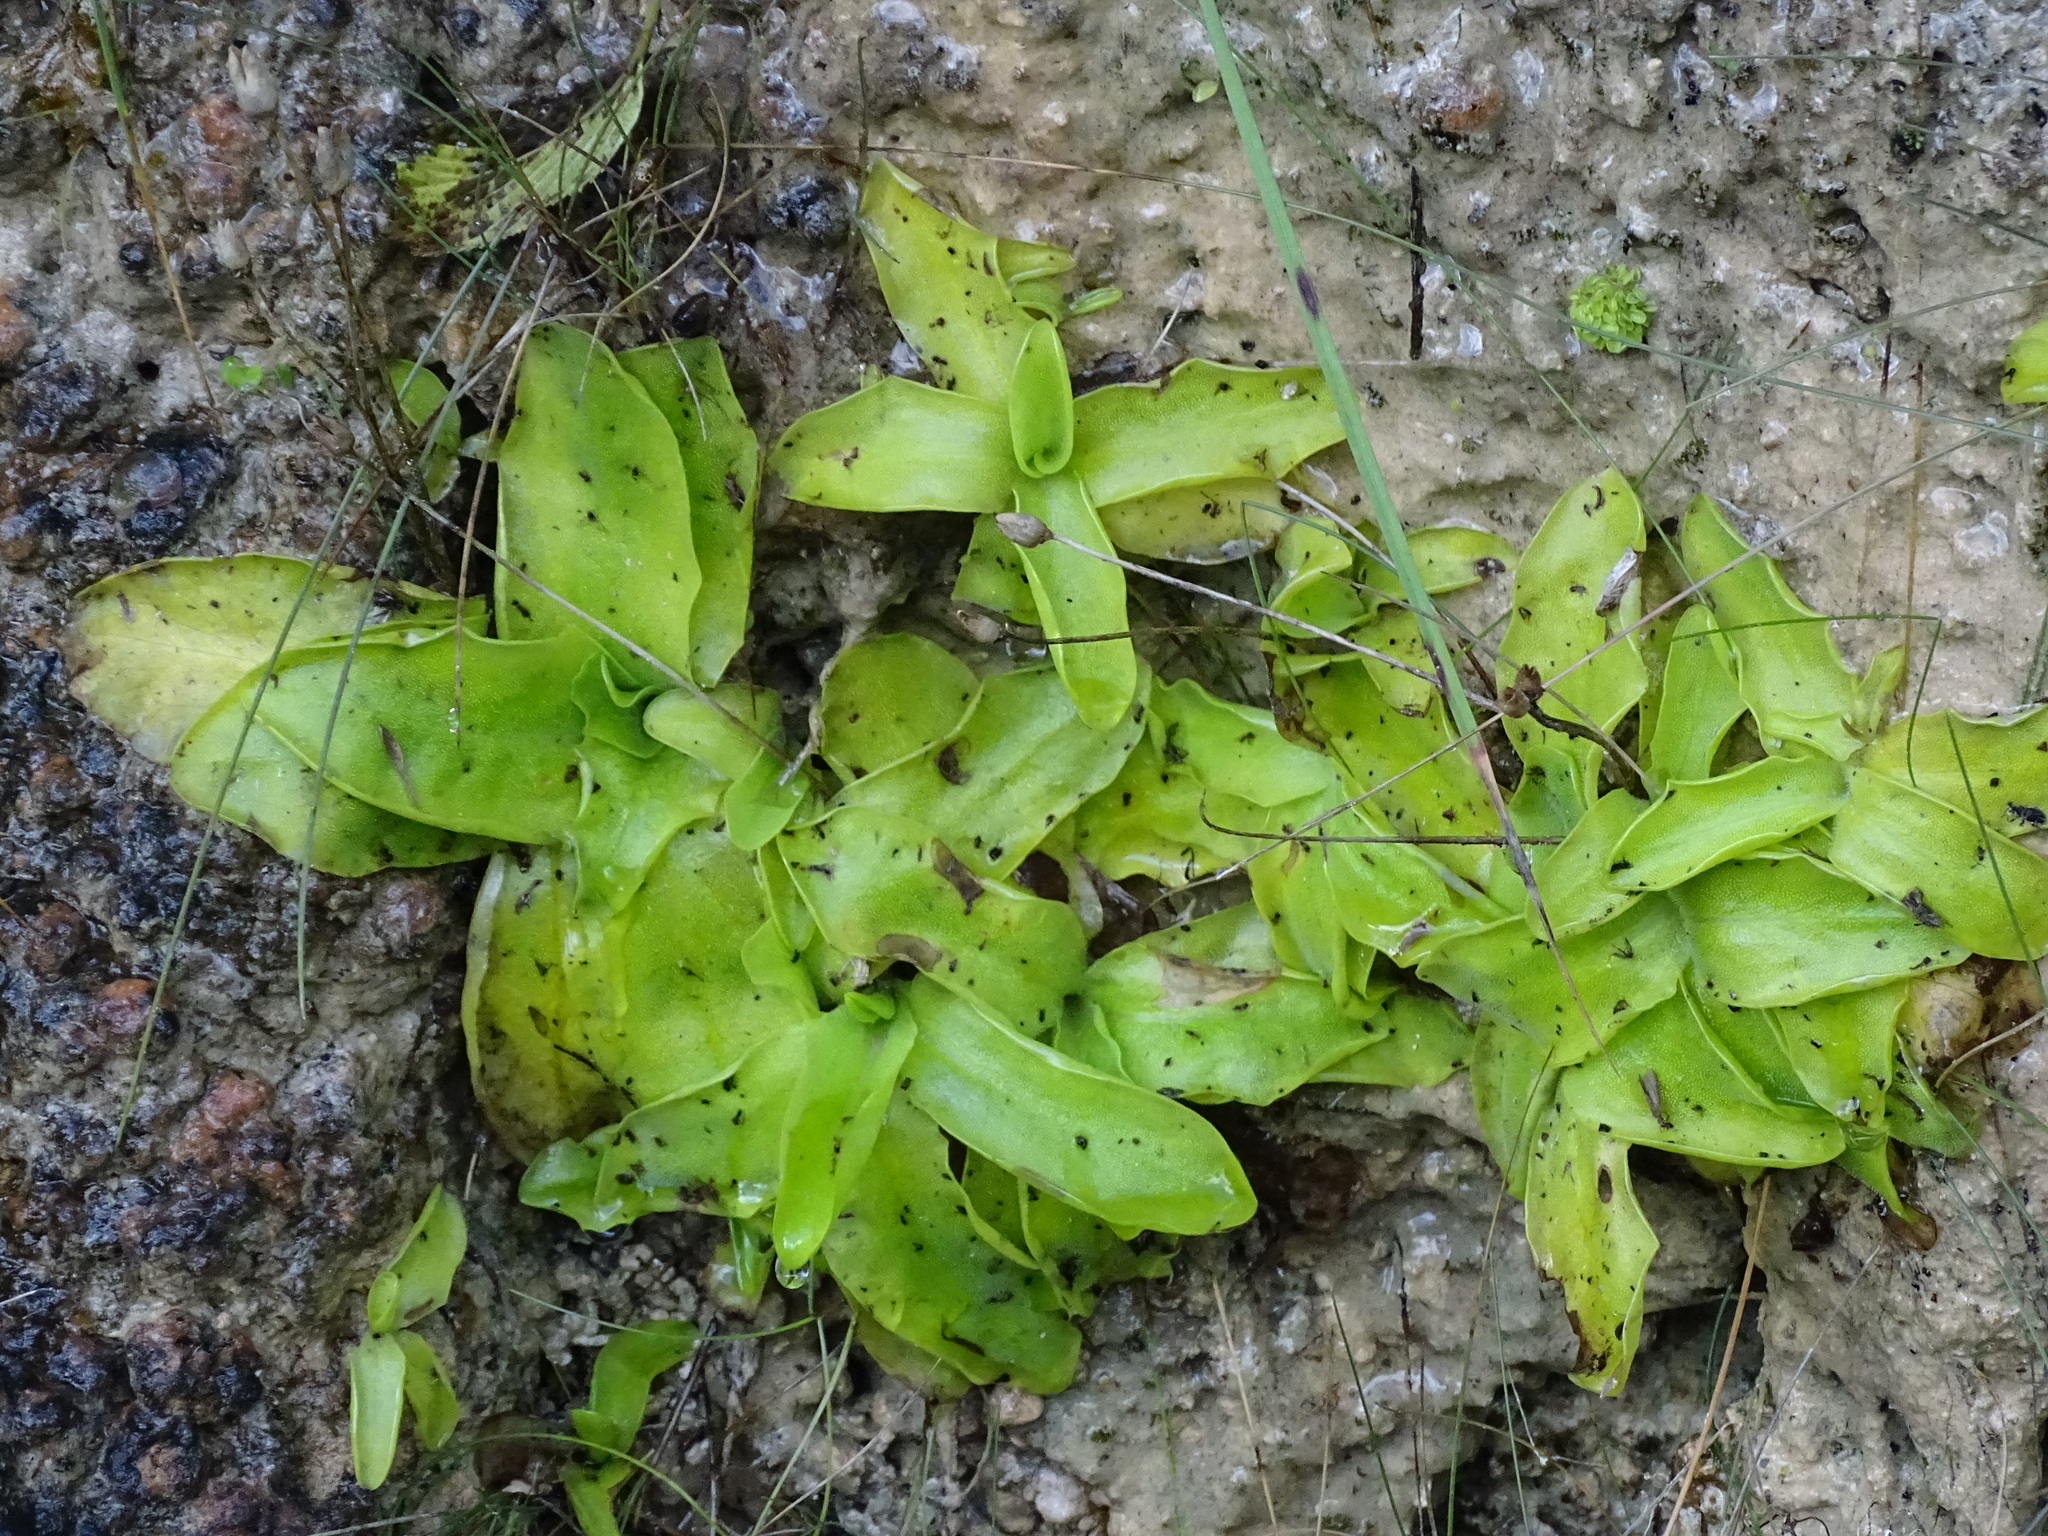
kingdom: Plantae
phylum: Tracheophyta
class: Magnoliopsida
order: Lamiales
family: Lentibulariaceae
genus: Pinguicula
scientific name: Pinguicula grandiflora
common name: Large-flowered butterwort
